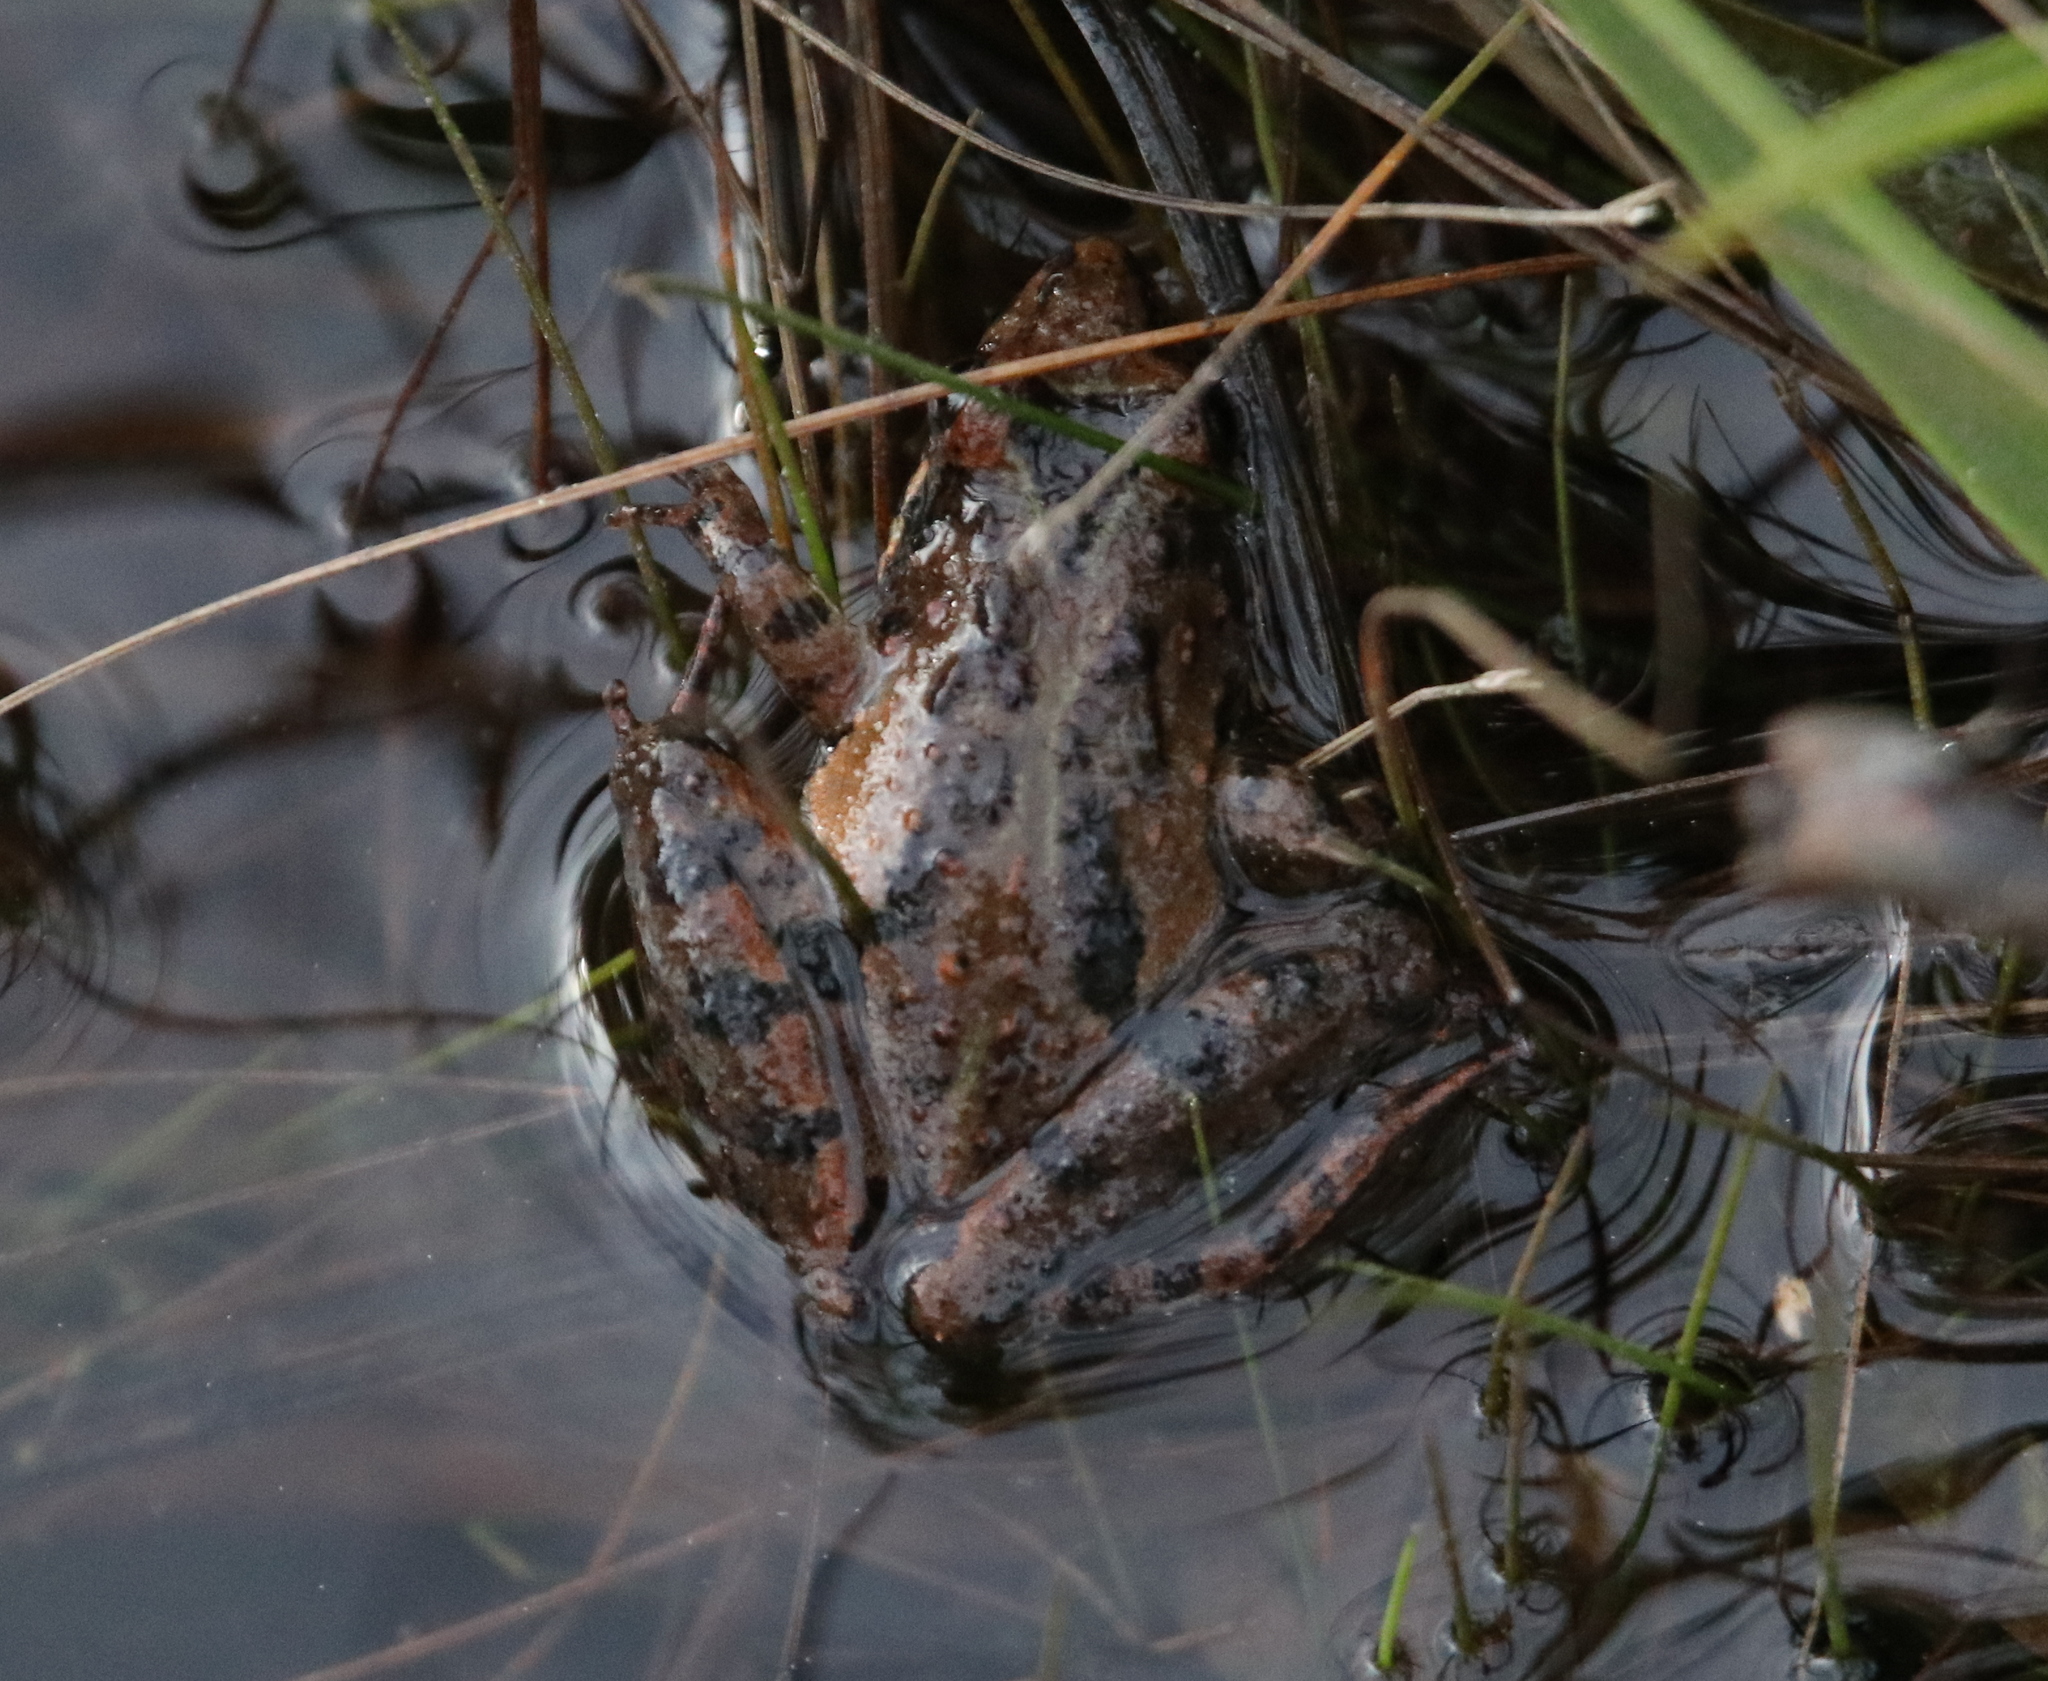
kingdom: Animalia
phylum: Chordata
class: Amphibia
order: Anura
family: Hylidae
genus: Acris
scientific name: Acris gryllus
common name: Southern cricket frog
